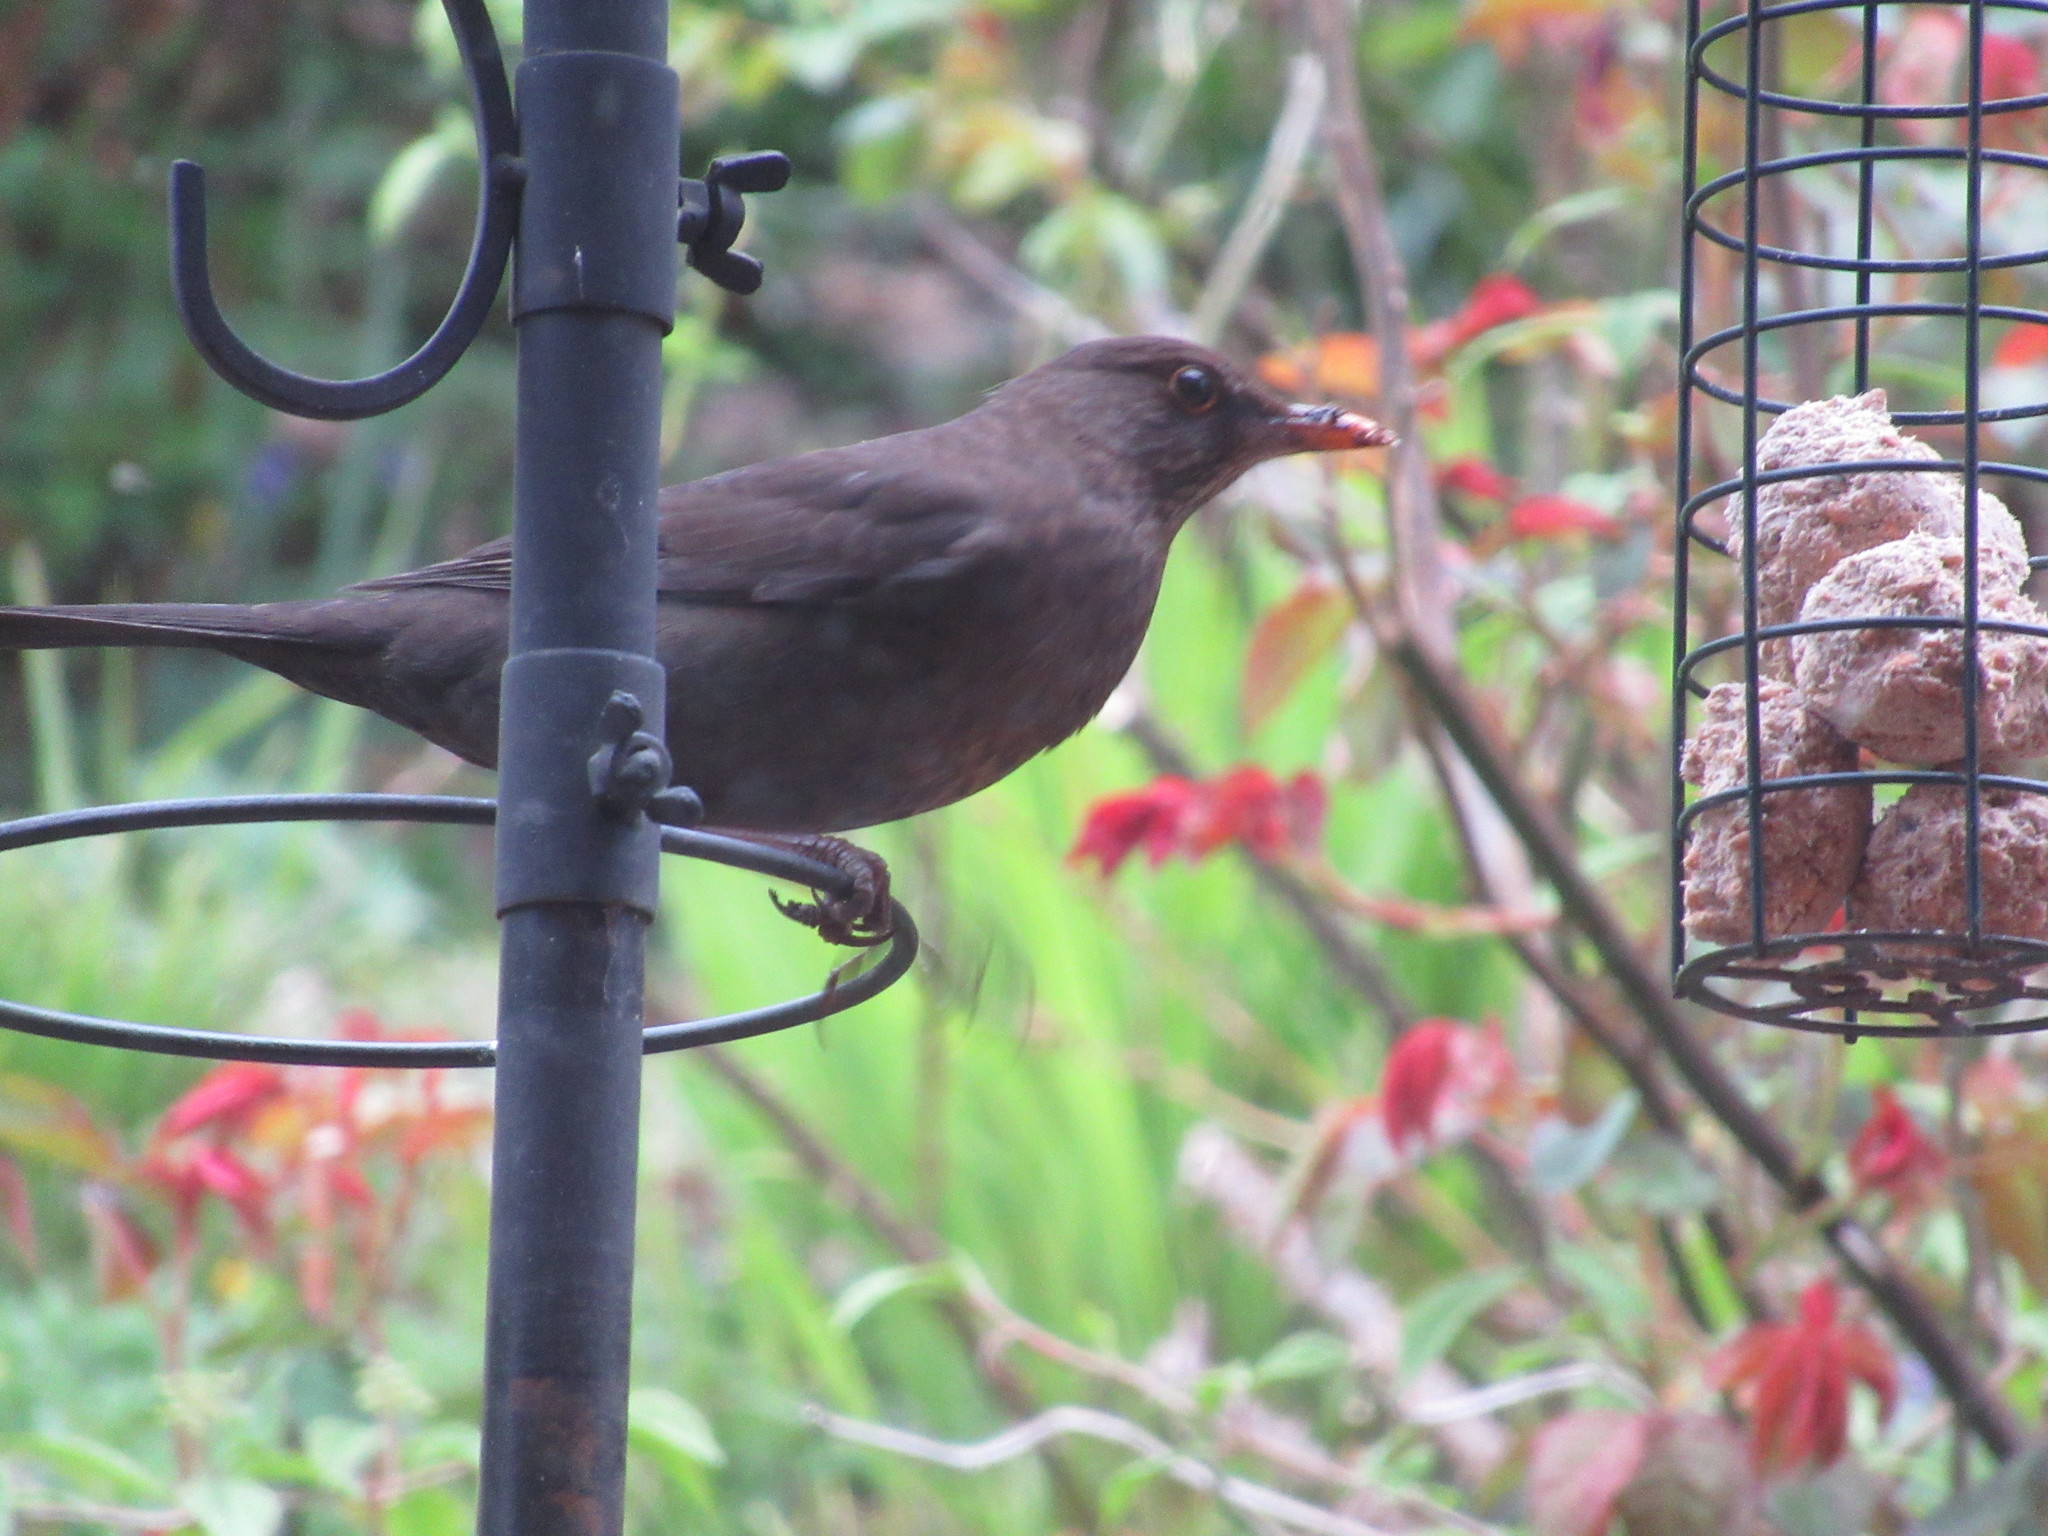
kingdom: Animalia
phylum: Chordata
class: Aves
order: Passeriformes
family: Turdidae
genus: Turdus
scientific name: Turdus merula
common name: Common blackbird
